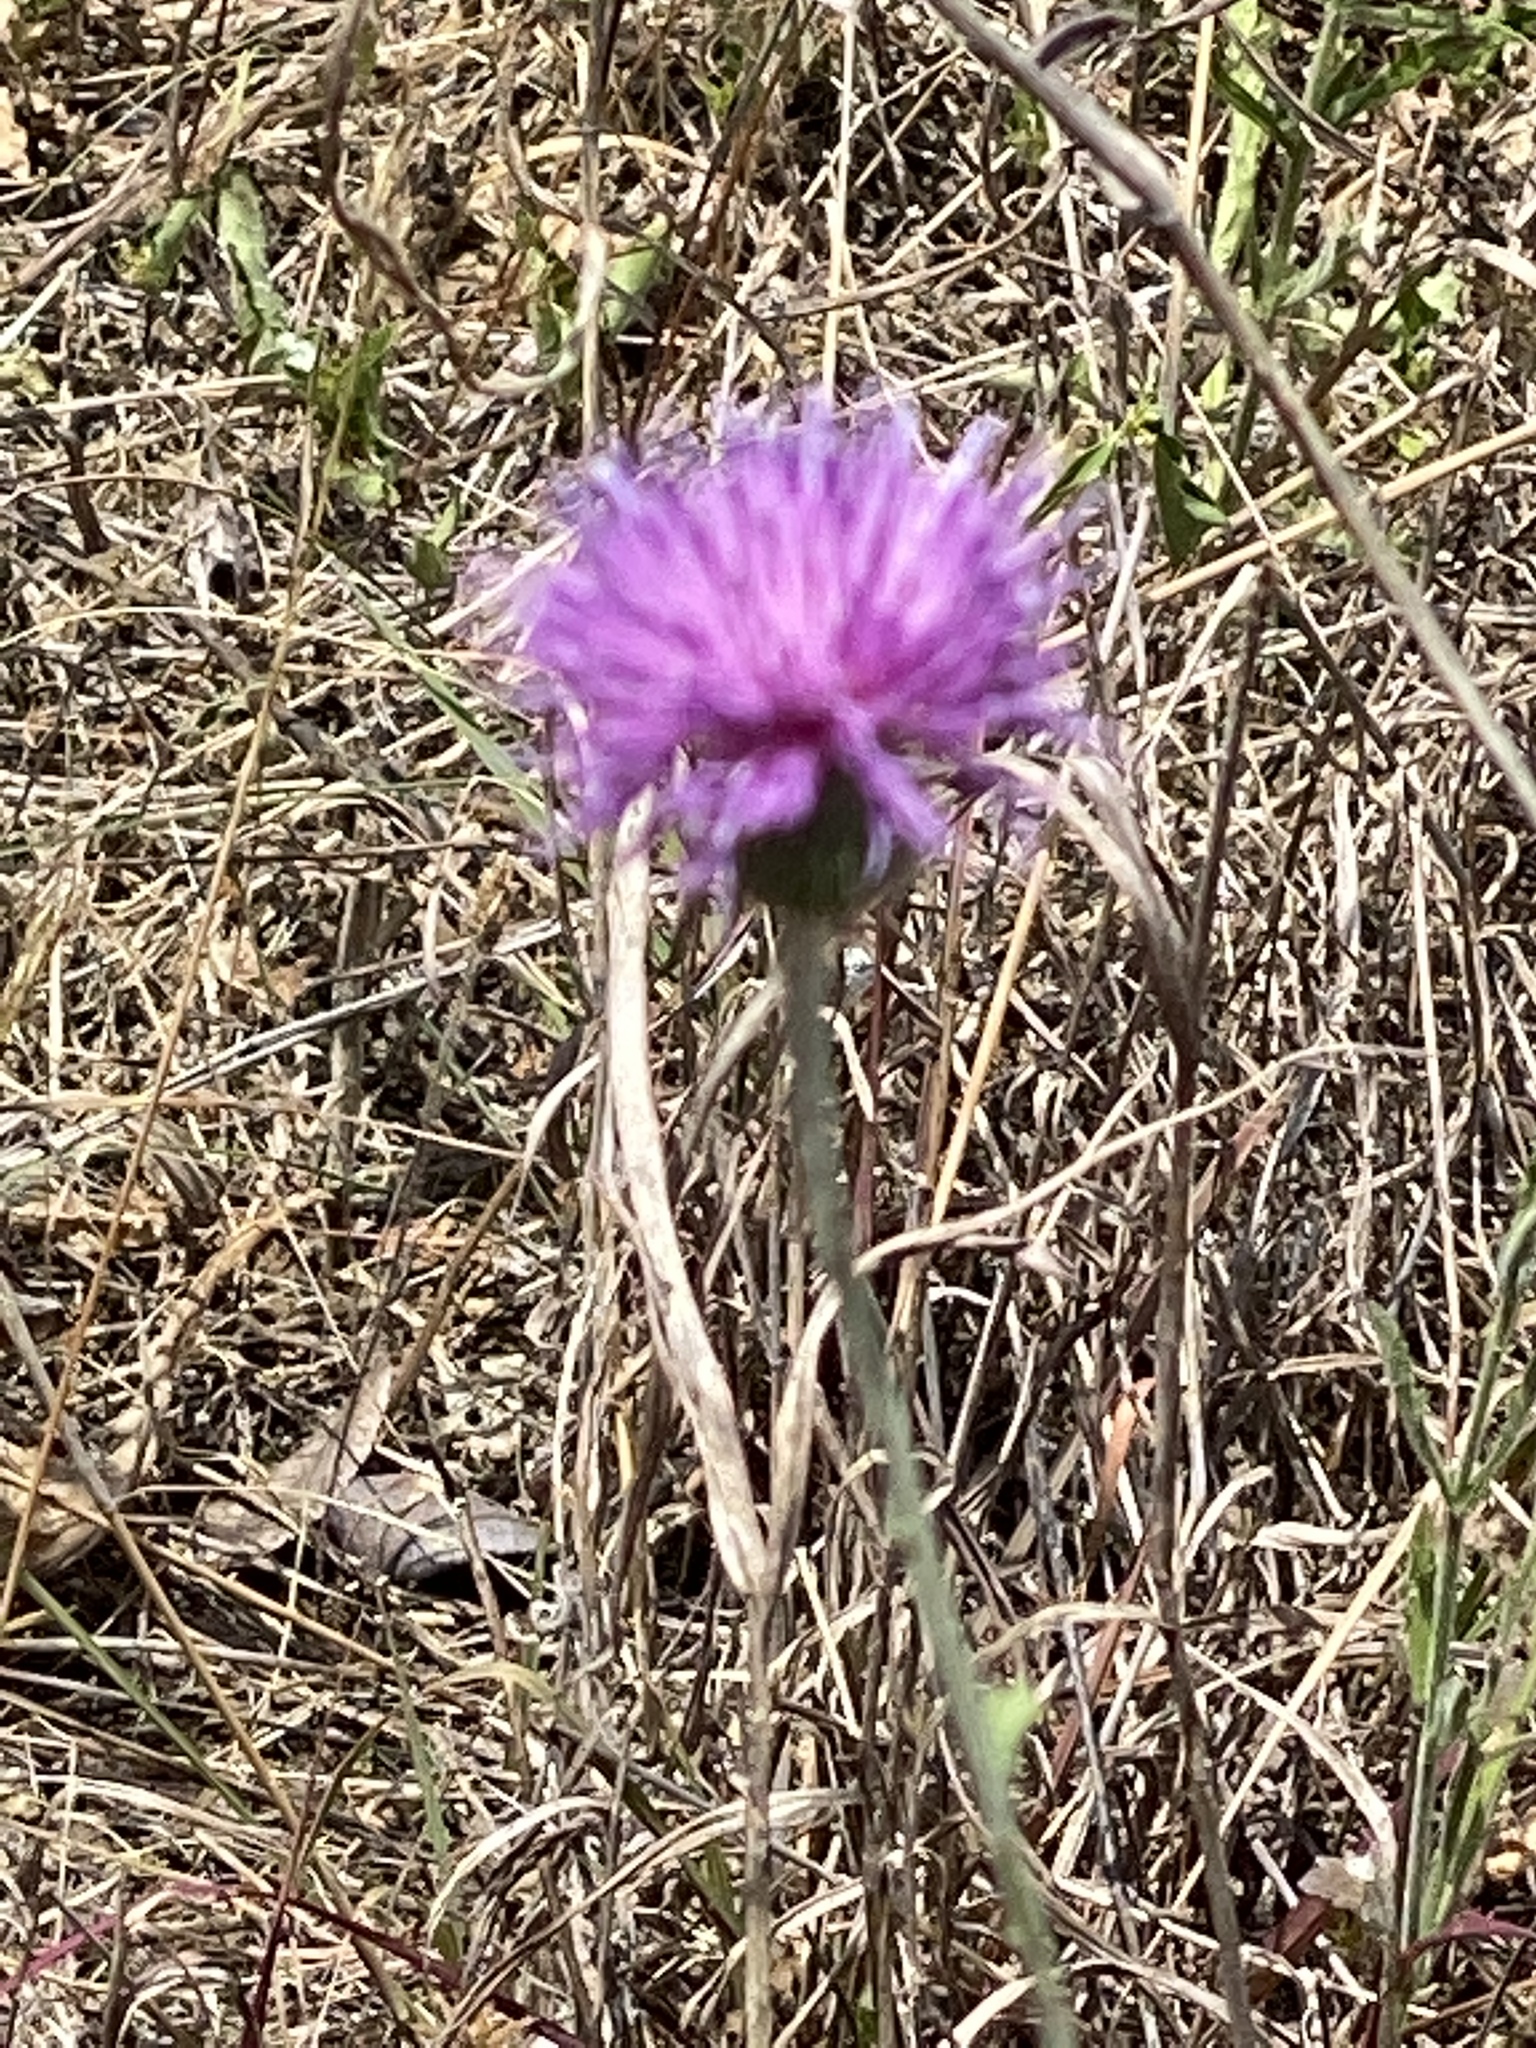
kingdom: Plantae
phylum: Tracheophyta
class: Magnoliopsida
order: Asterales
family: Asteraceae
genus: Cirsium
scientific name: Cirsium texanum
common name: Texas purple thistle
